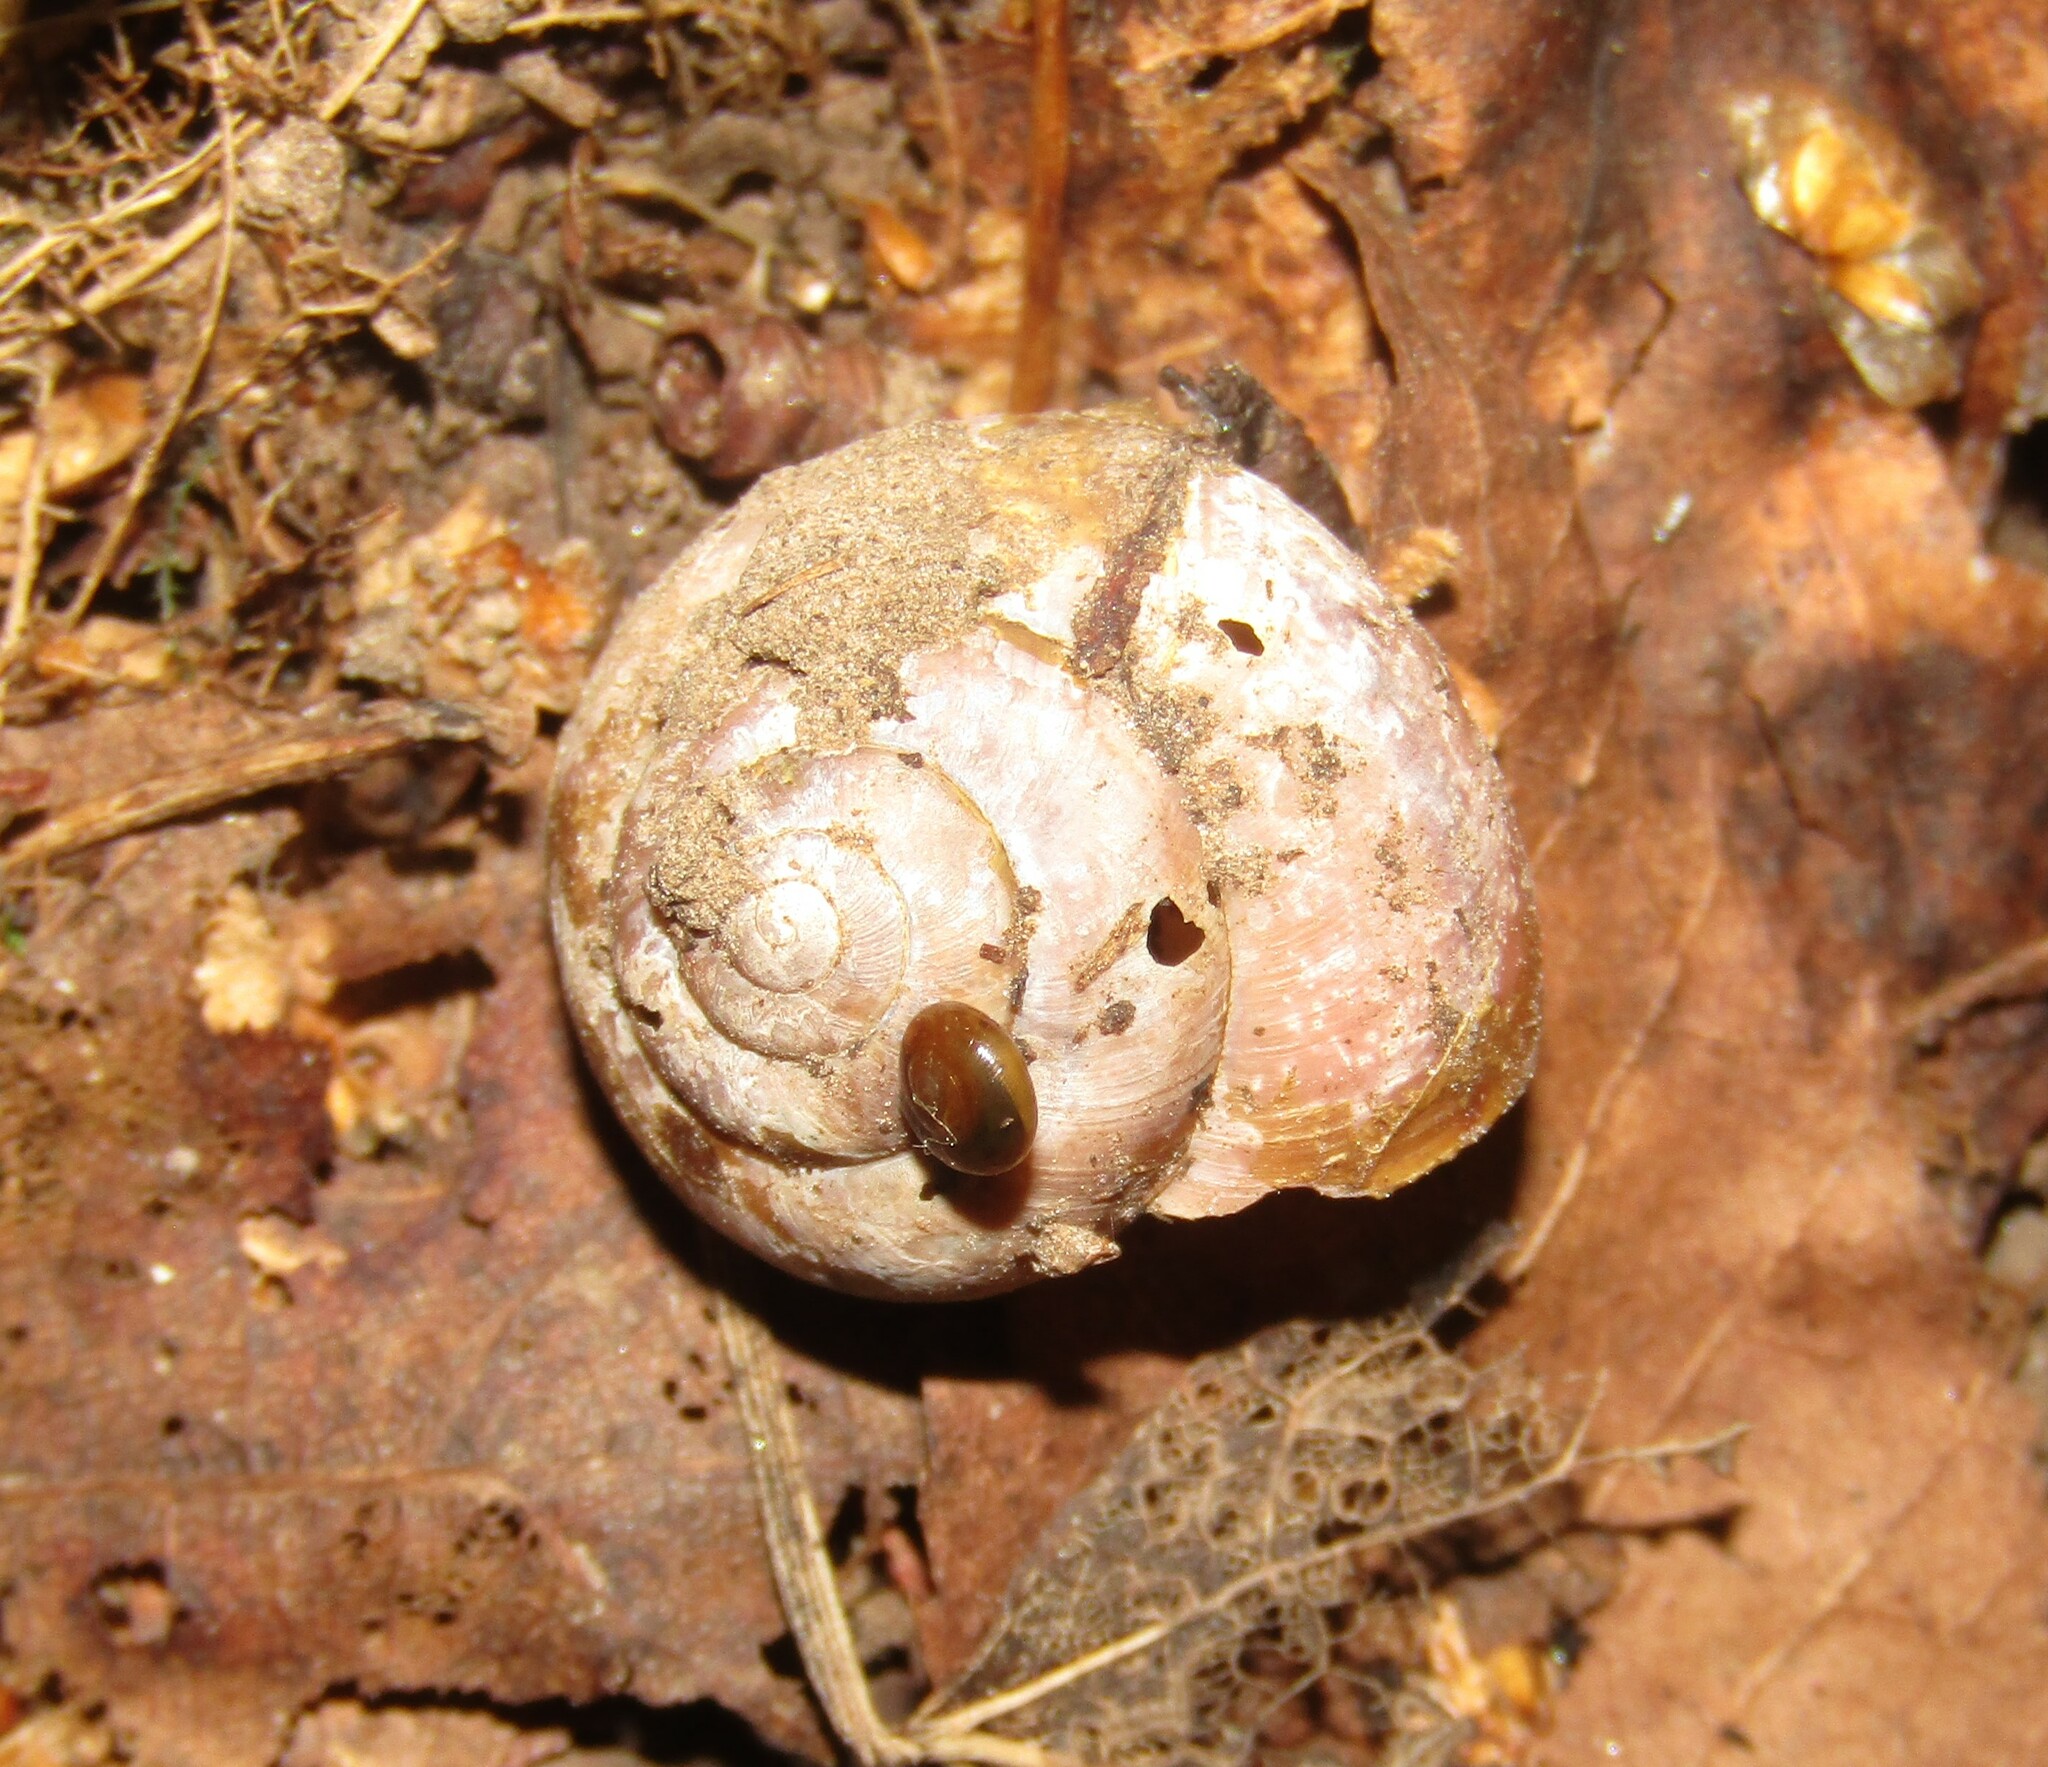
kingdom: Animalia
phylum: Mollusca
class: Gastropoda
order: Stylommatophora
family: Camaenidae
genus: Fruticicola
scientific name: Fruticicola fruticum
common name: Bush snail
